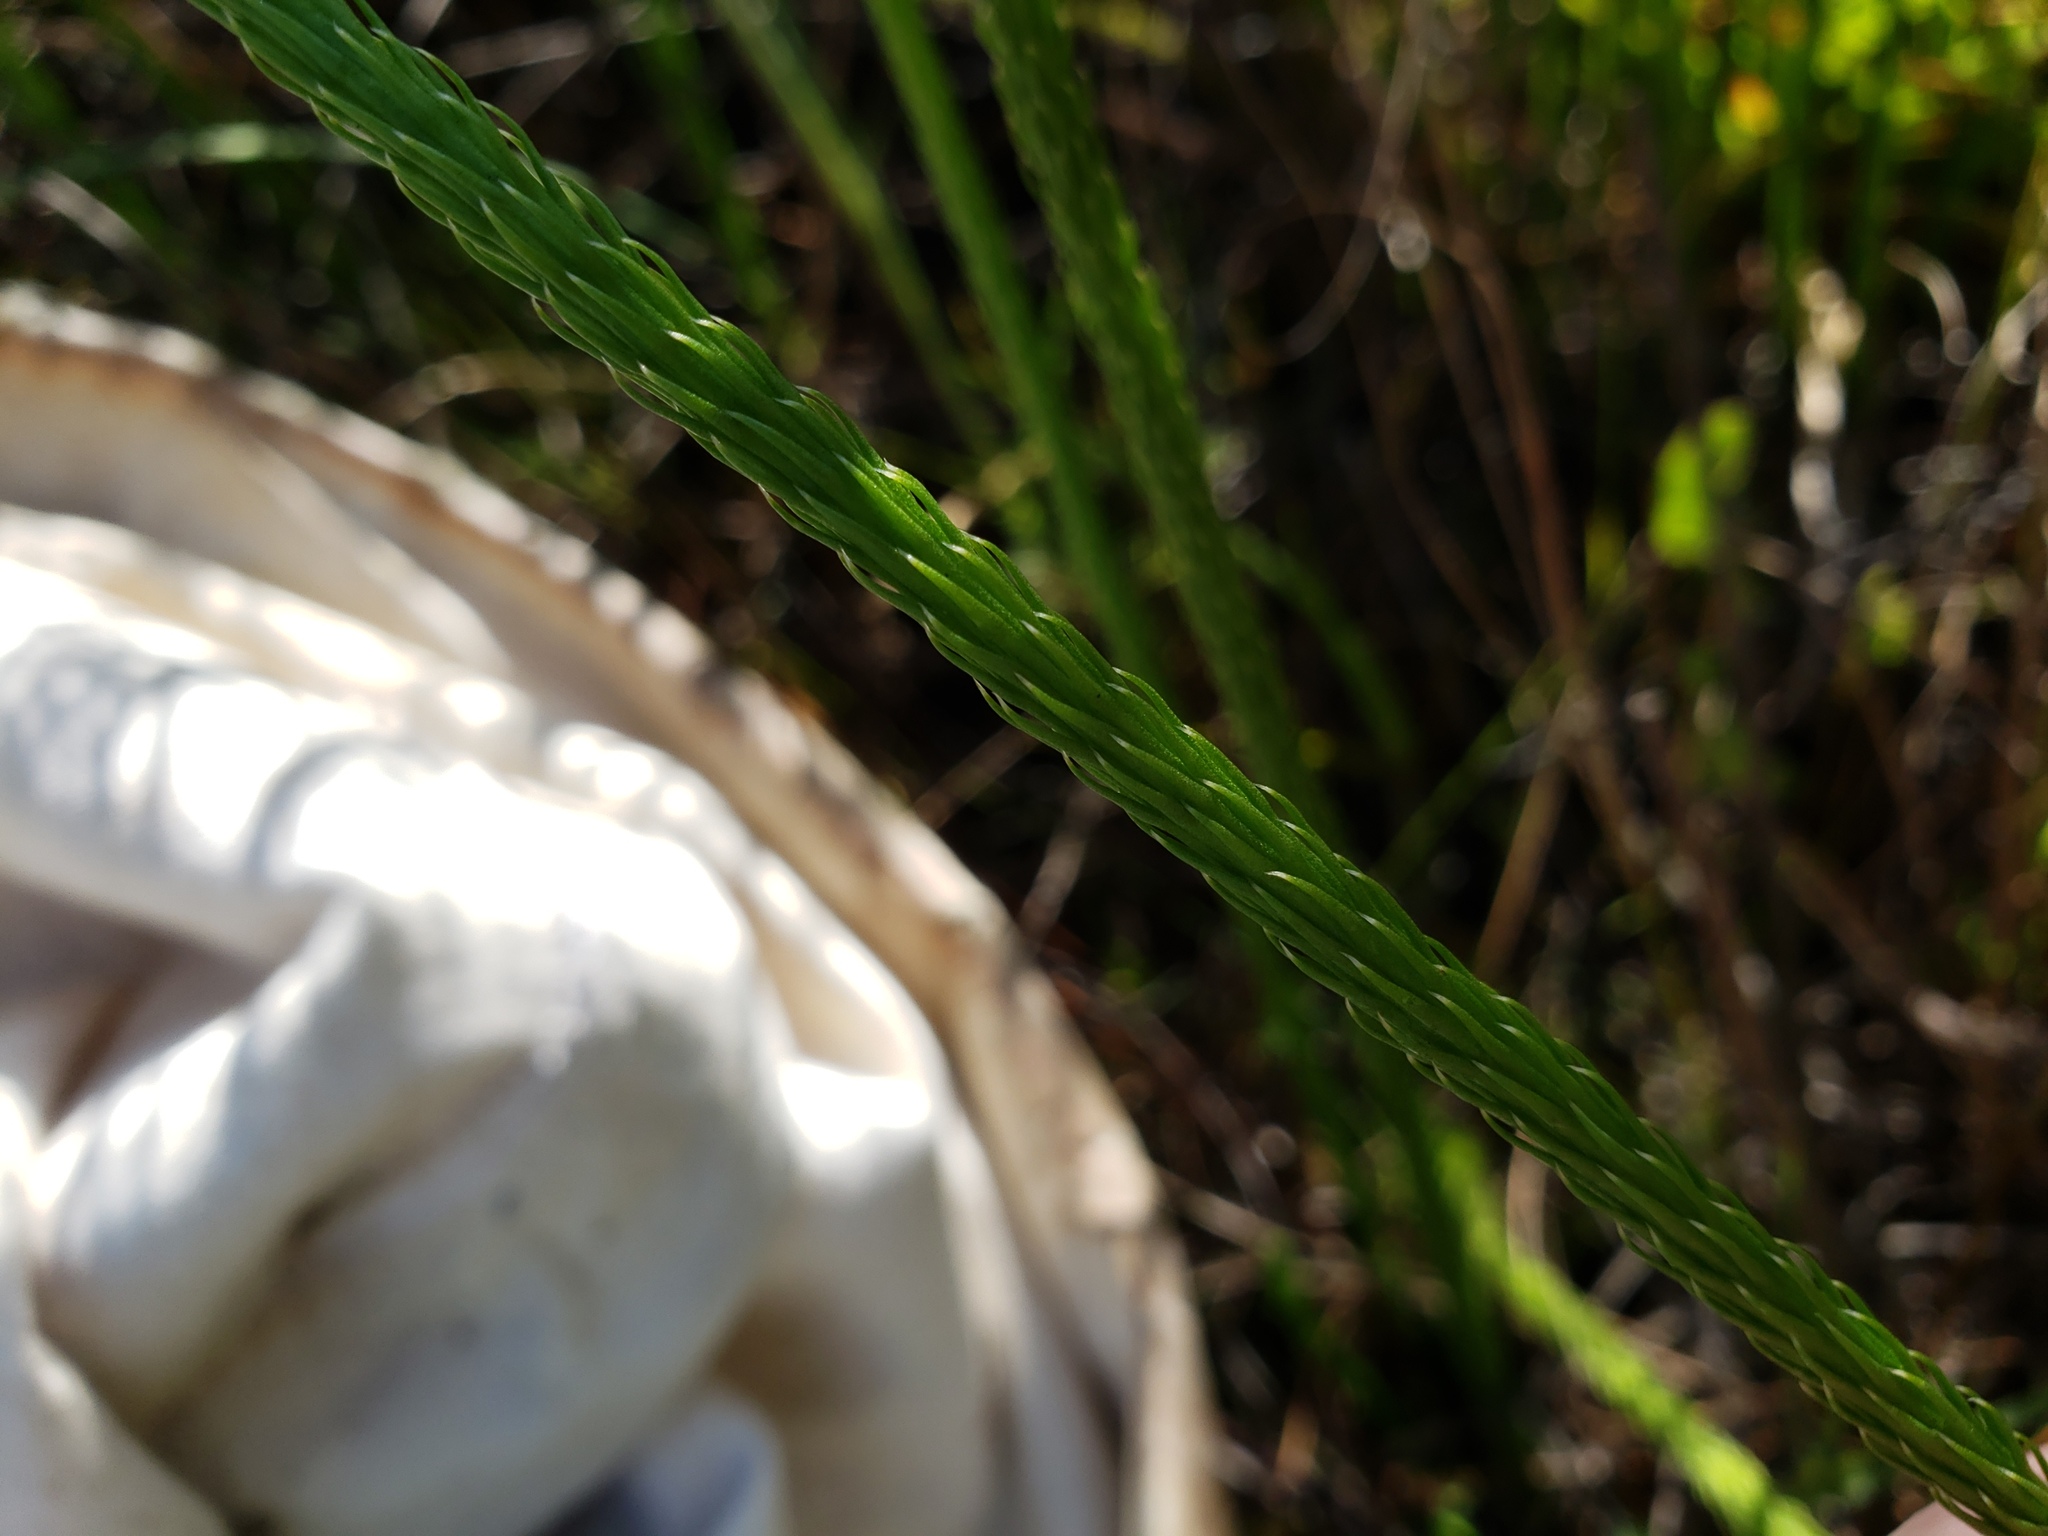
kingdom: Plantae
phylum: Tracheophyta
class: Lycopodiopsida
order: Lycopodiales
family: Lycopodiaceae
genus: Lycopodiella
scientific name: Lycopodiella appressa
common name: Appressed bog clubmoss
